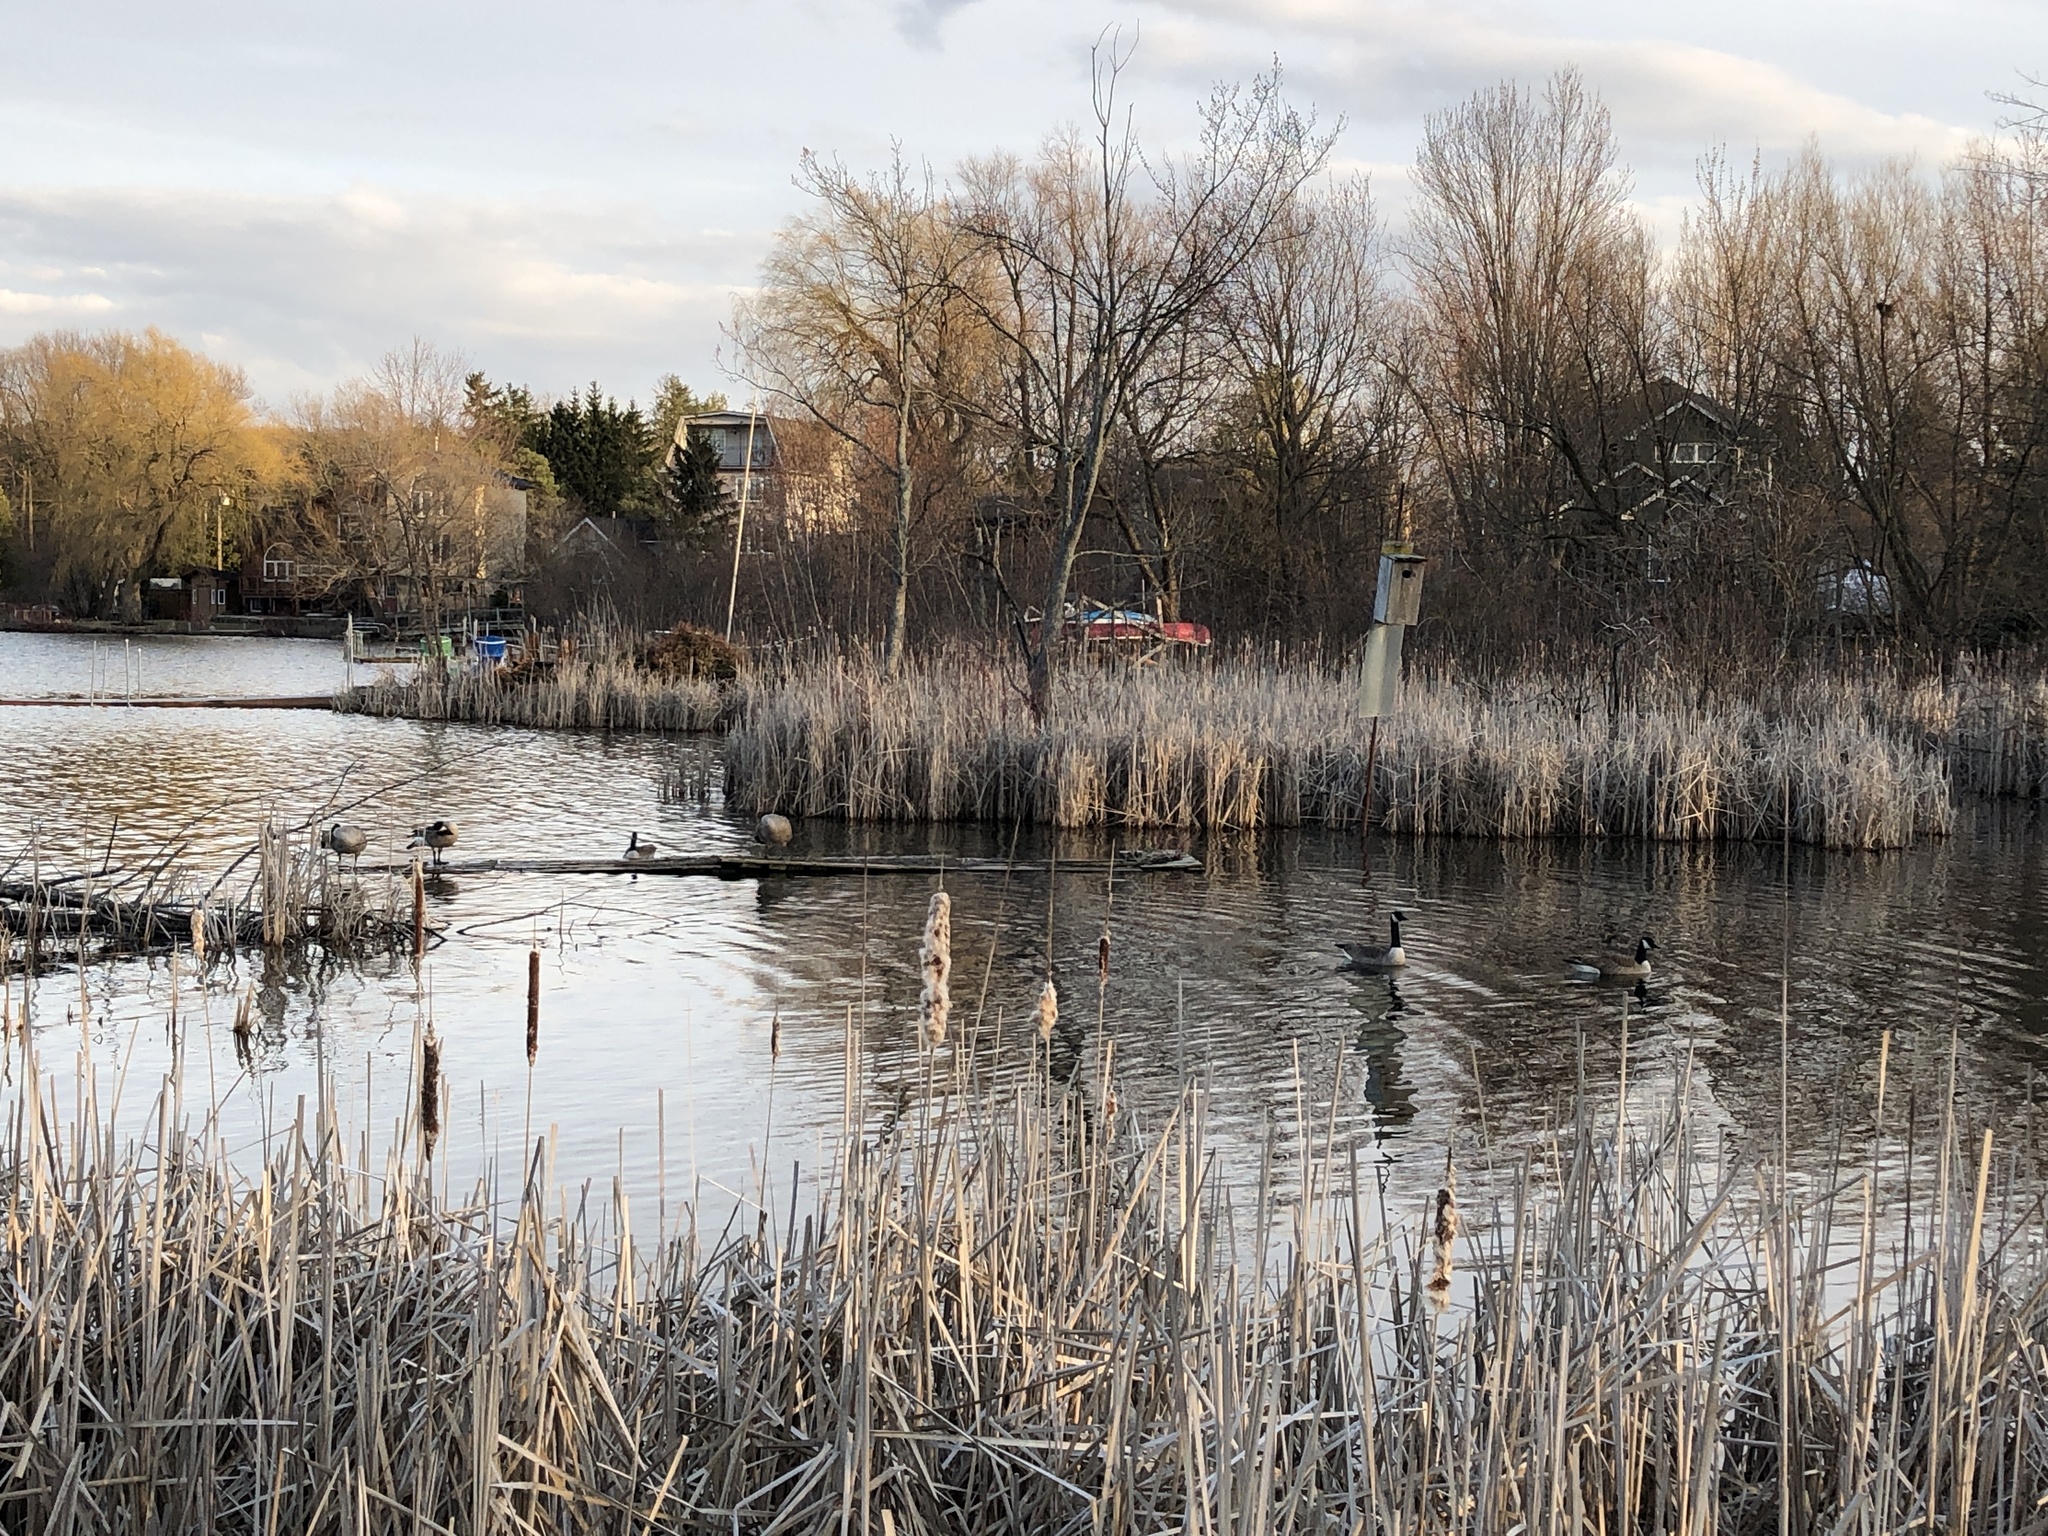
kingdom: Animalia
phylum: Chordata
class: Aves
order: Anseriformes
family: Anatidae
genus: Branta
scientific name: Branta canadensis
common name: Canada goose
